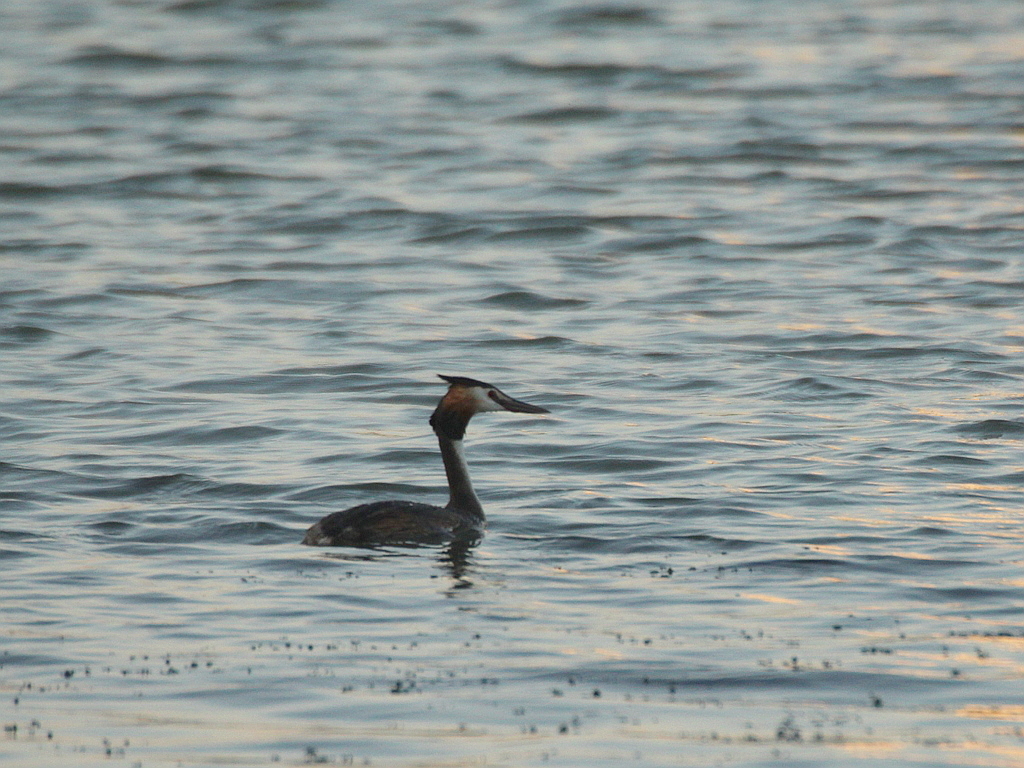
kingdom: Animalia
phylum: Chordata
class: Aves
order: Podicipediformes
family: Podicipedidae
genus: Podiceps
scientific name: Podiceps cristatus
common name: Great crested grebe
